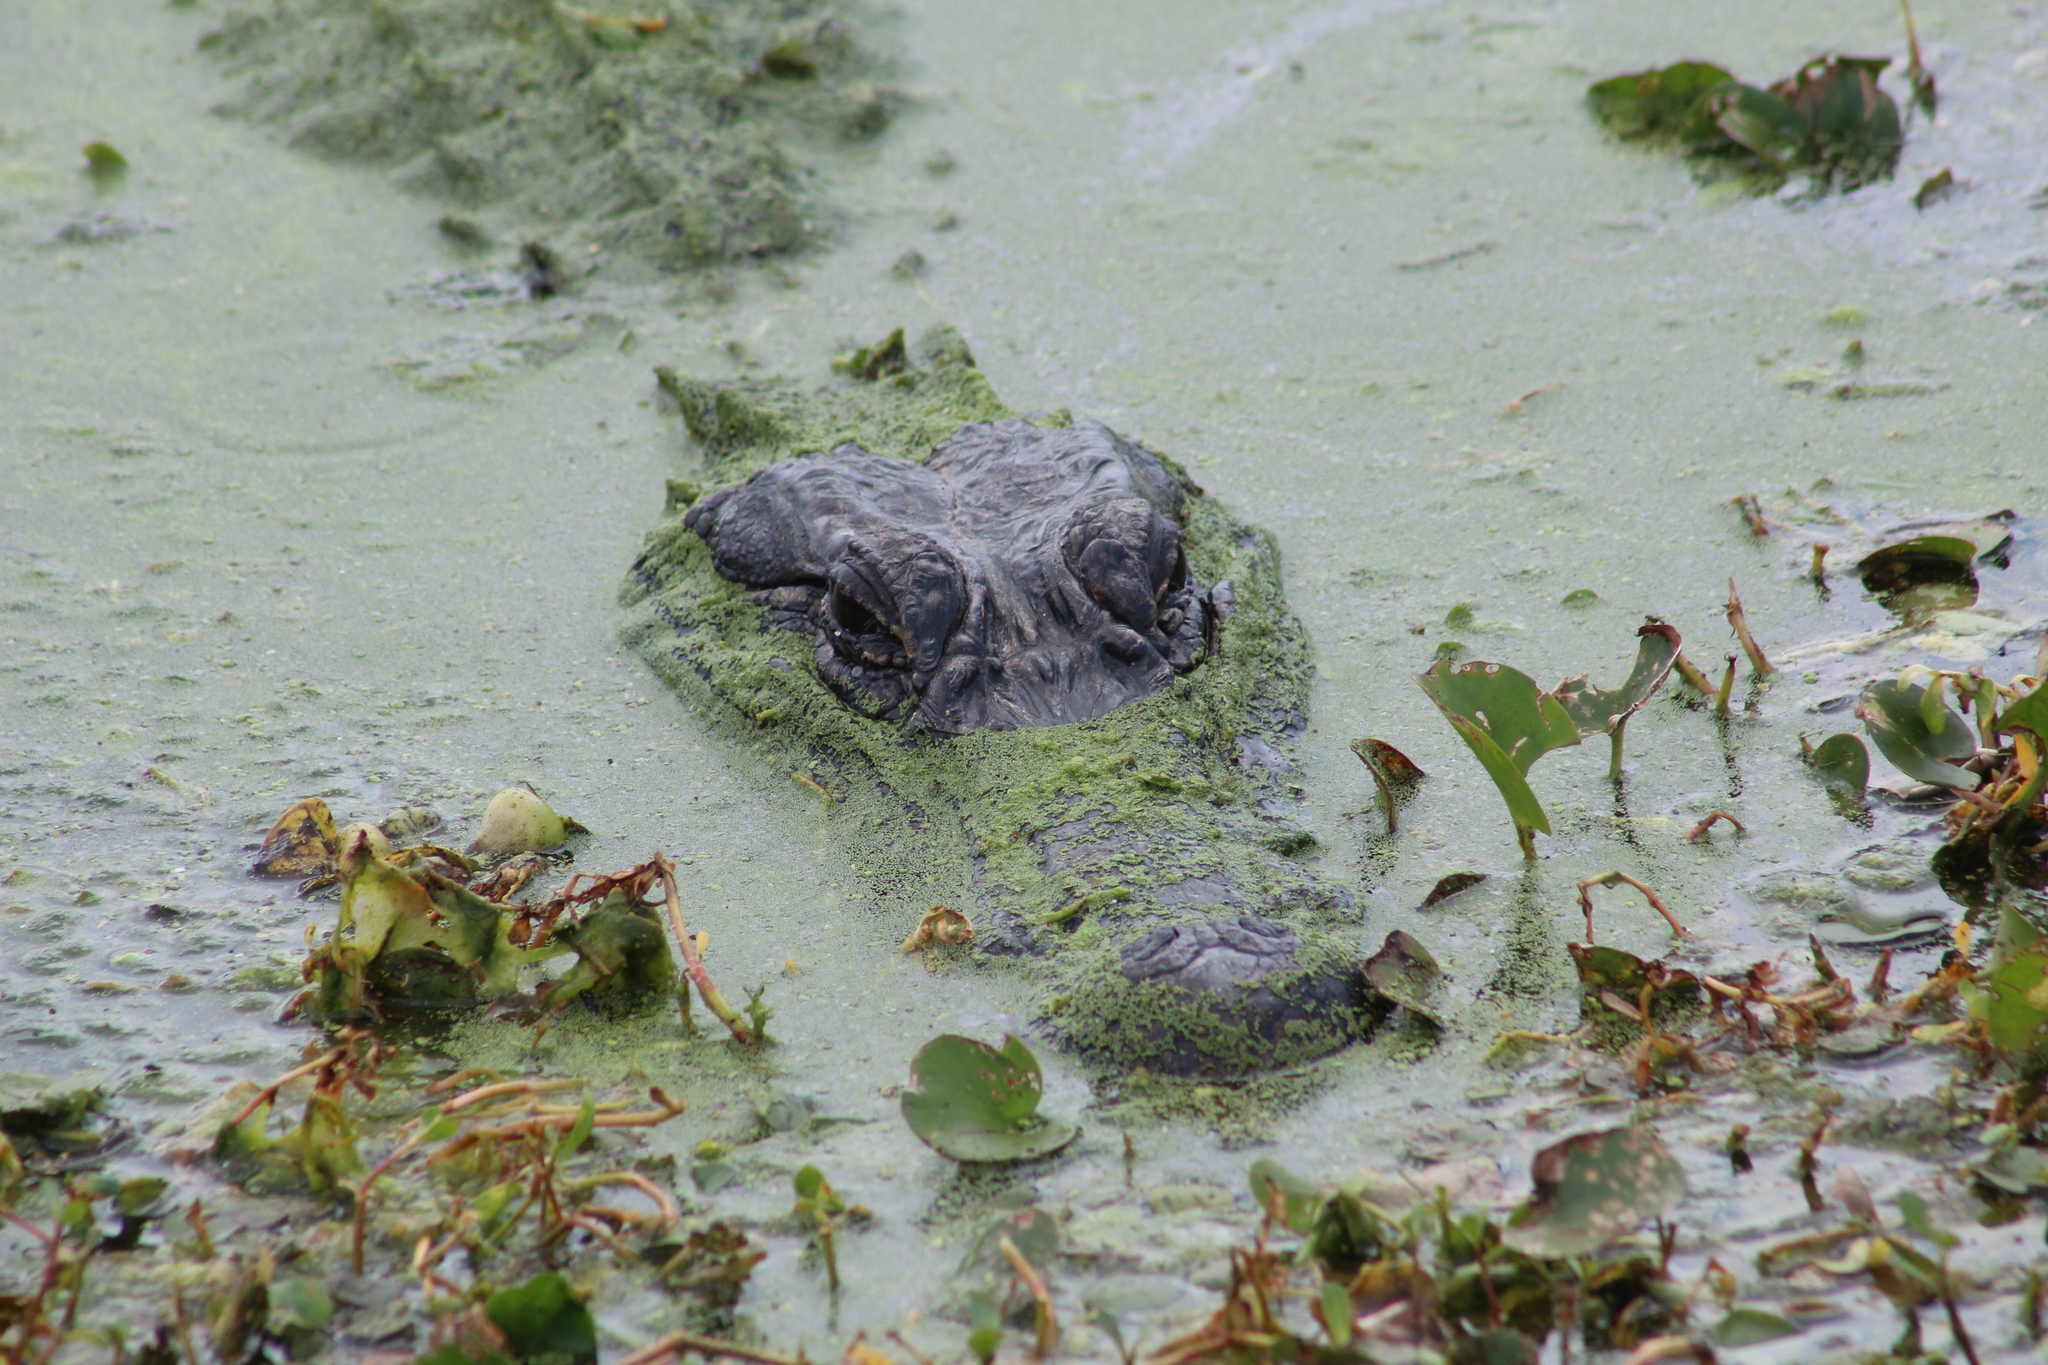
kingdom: Animalia
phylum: Chordata
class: Crocodylia
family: Alligatoridae
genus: Alligator
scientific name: Alligator mississippiensis
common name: American alligator
